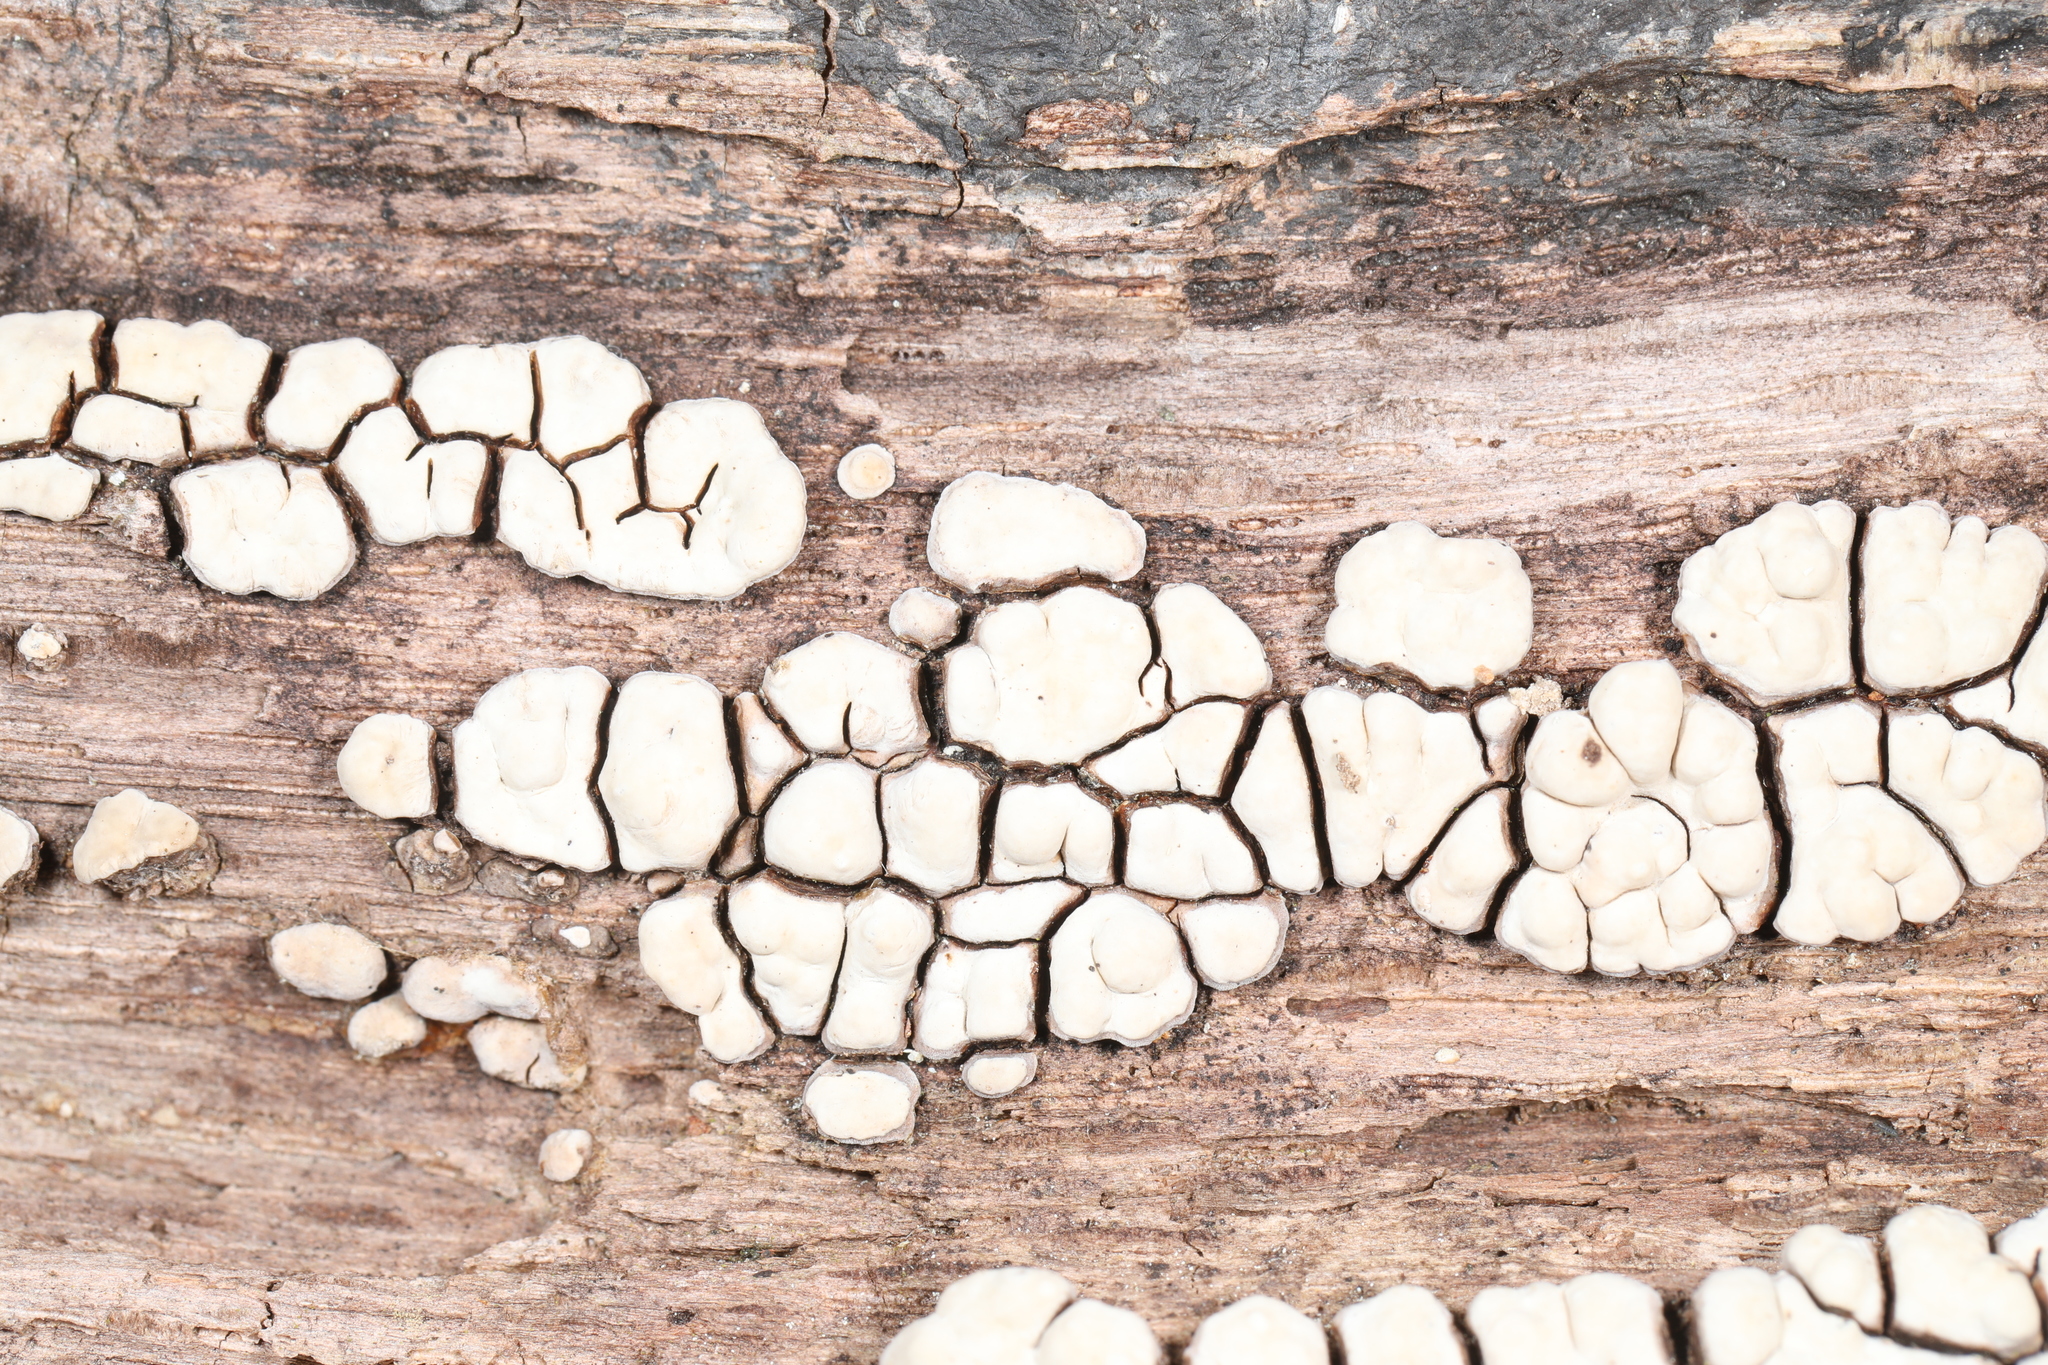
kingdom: Fungi
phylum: Basidiomycota
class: Agaricomycetes
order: Russulales
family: Stereaceae
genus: Xylobolus
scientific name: Xylobolus frustulatus
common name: Ceramic parchment
